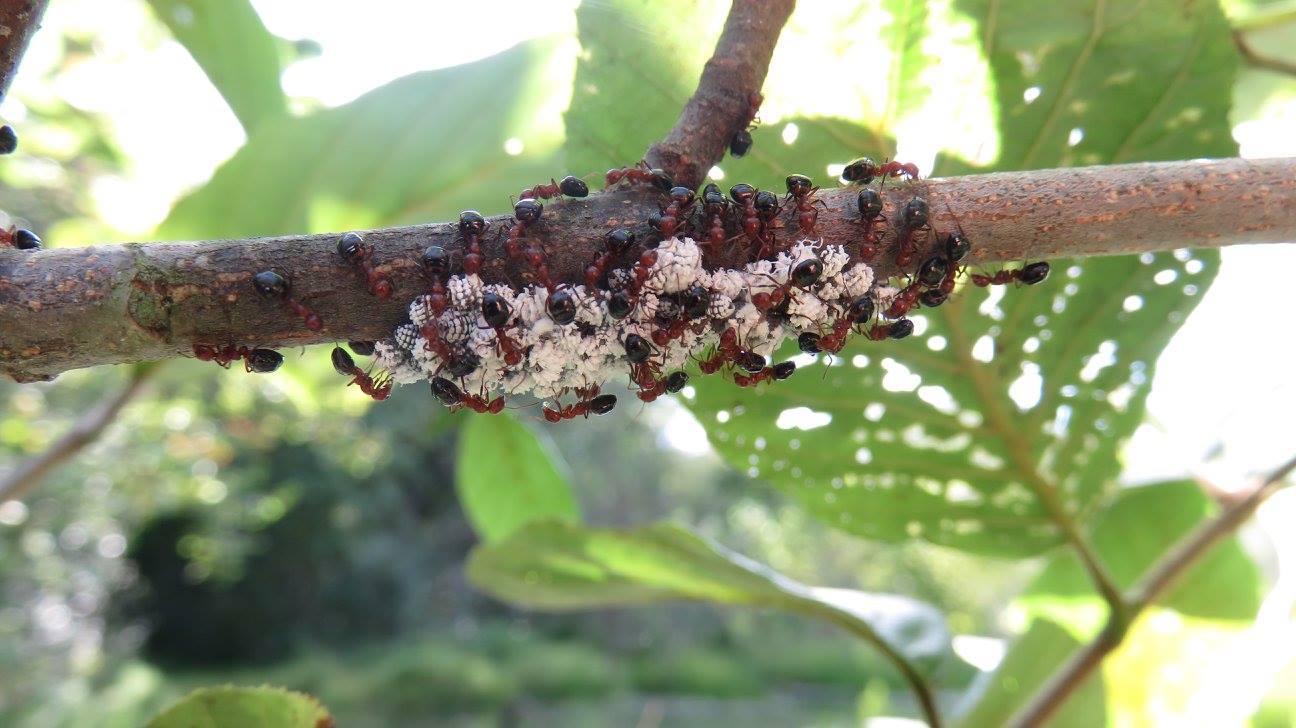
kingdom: Animalia
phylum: Arthropoda
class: Insecta
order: Hymenoptera
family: Formicidae
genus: Dolichoderus
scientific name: Dolichoderus mariae
